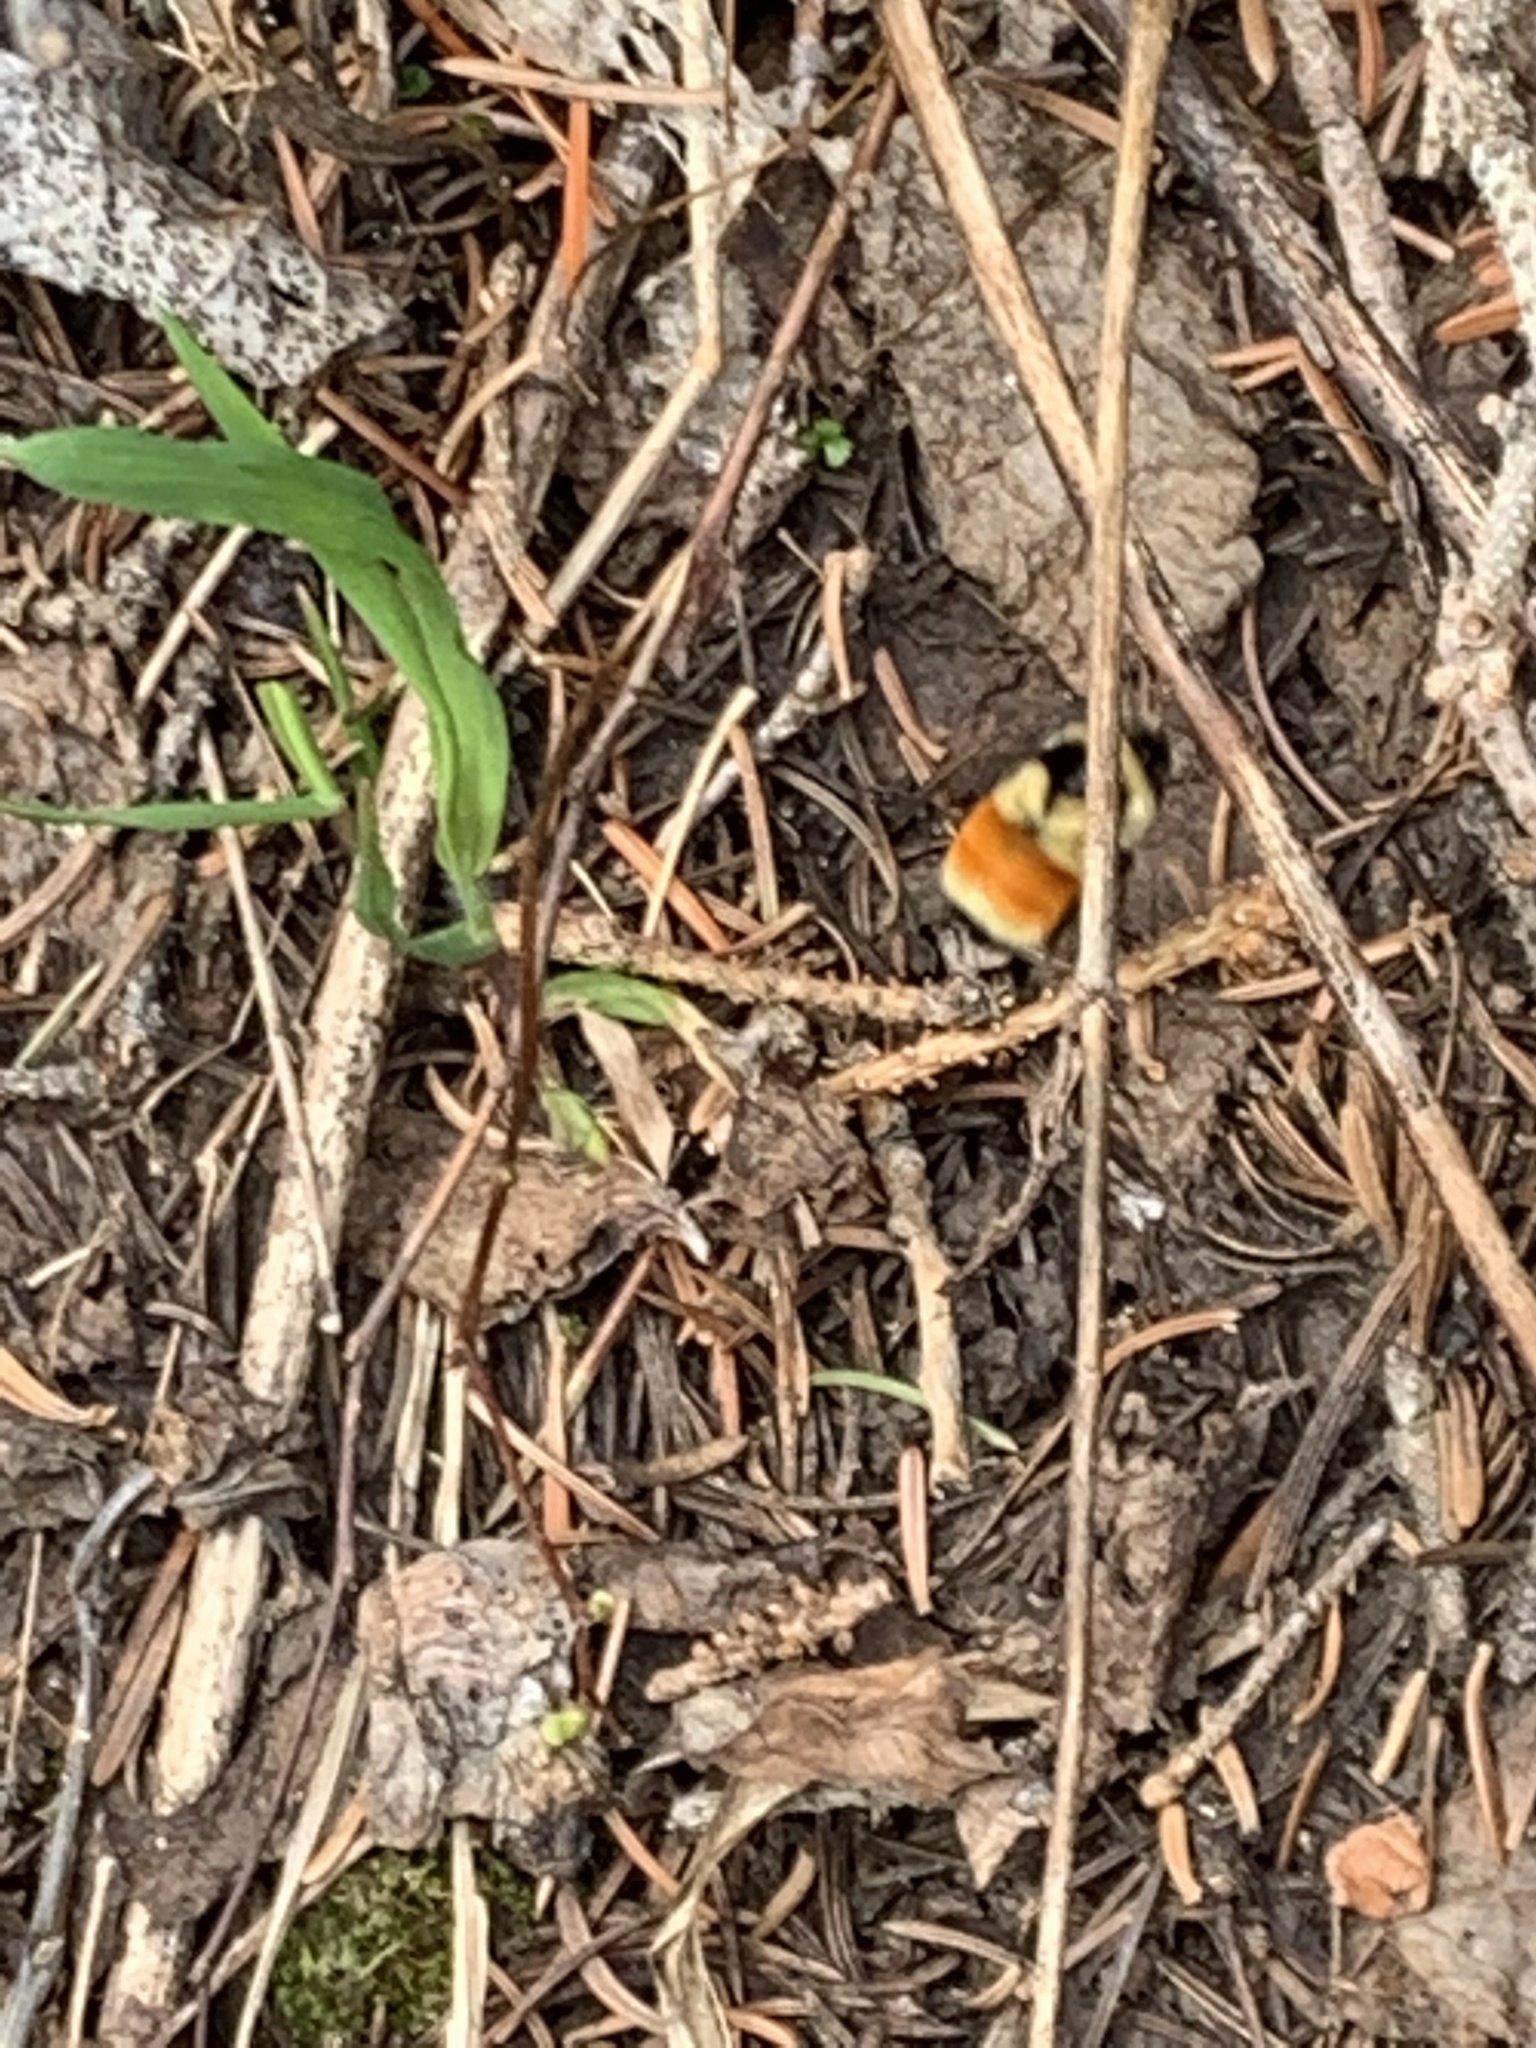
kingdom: Animalia
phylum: Arthropoda
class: Insecta
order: Hymenoptera
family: Apidae
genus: Bombus
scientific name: Bombus ternarius
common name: Tri-colored bumble bee
